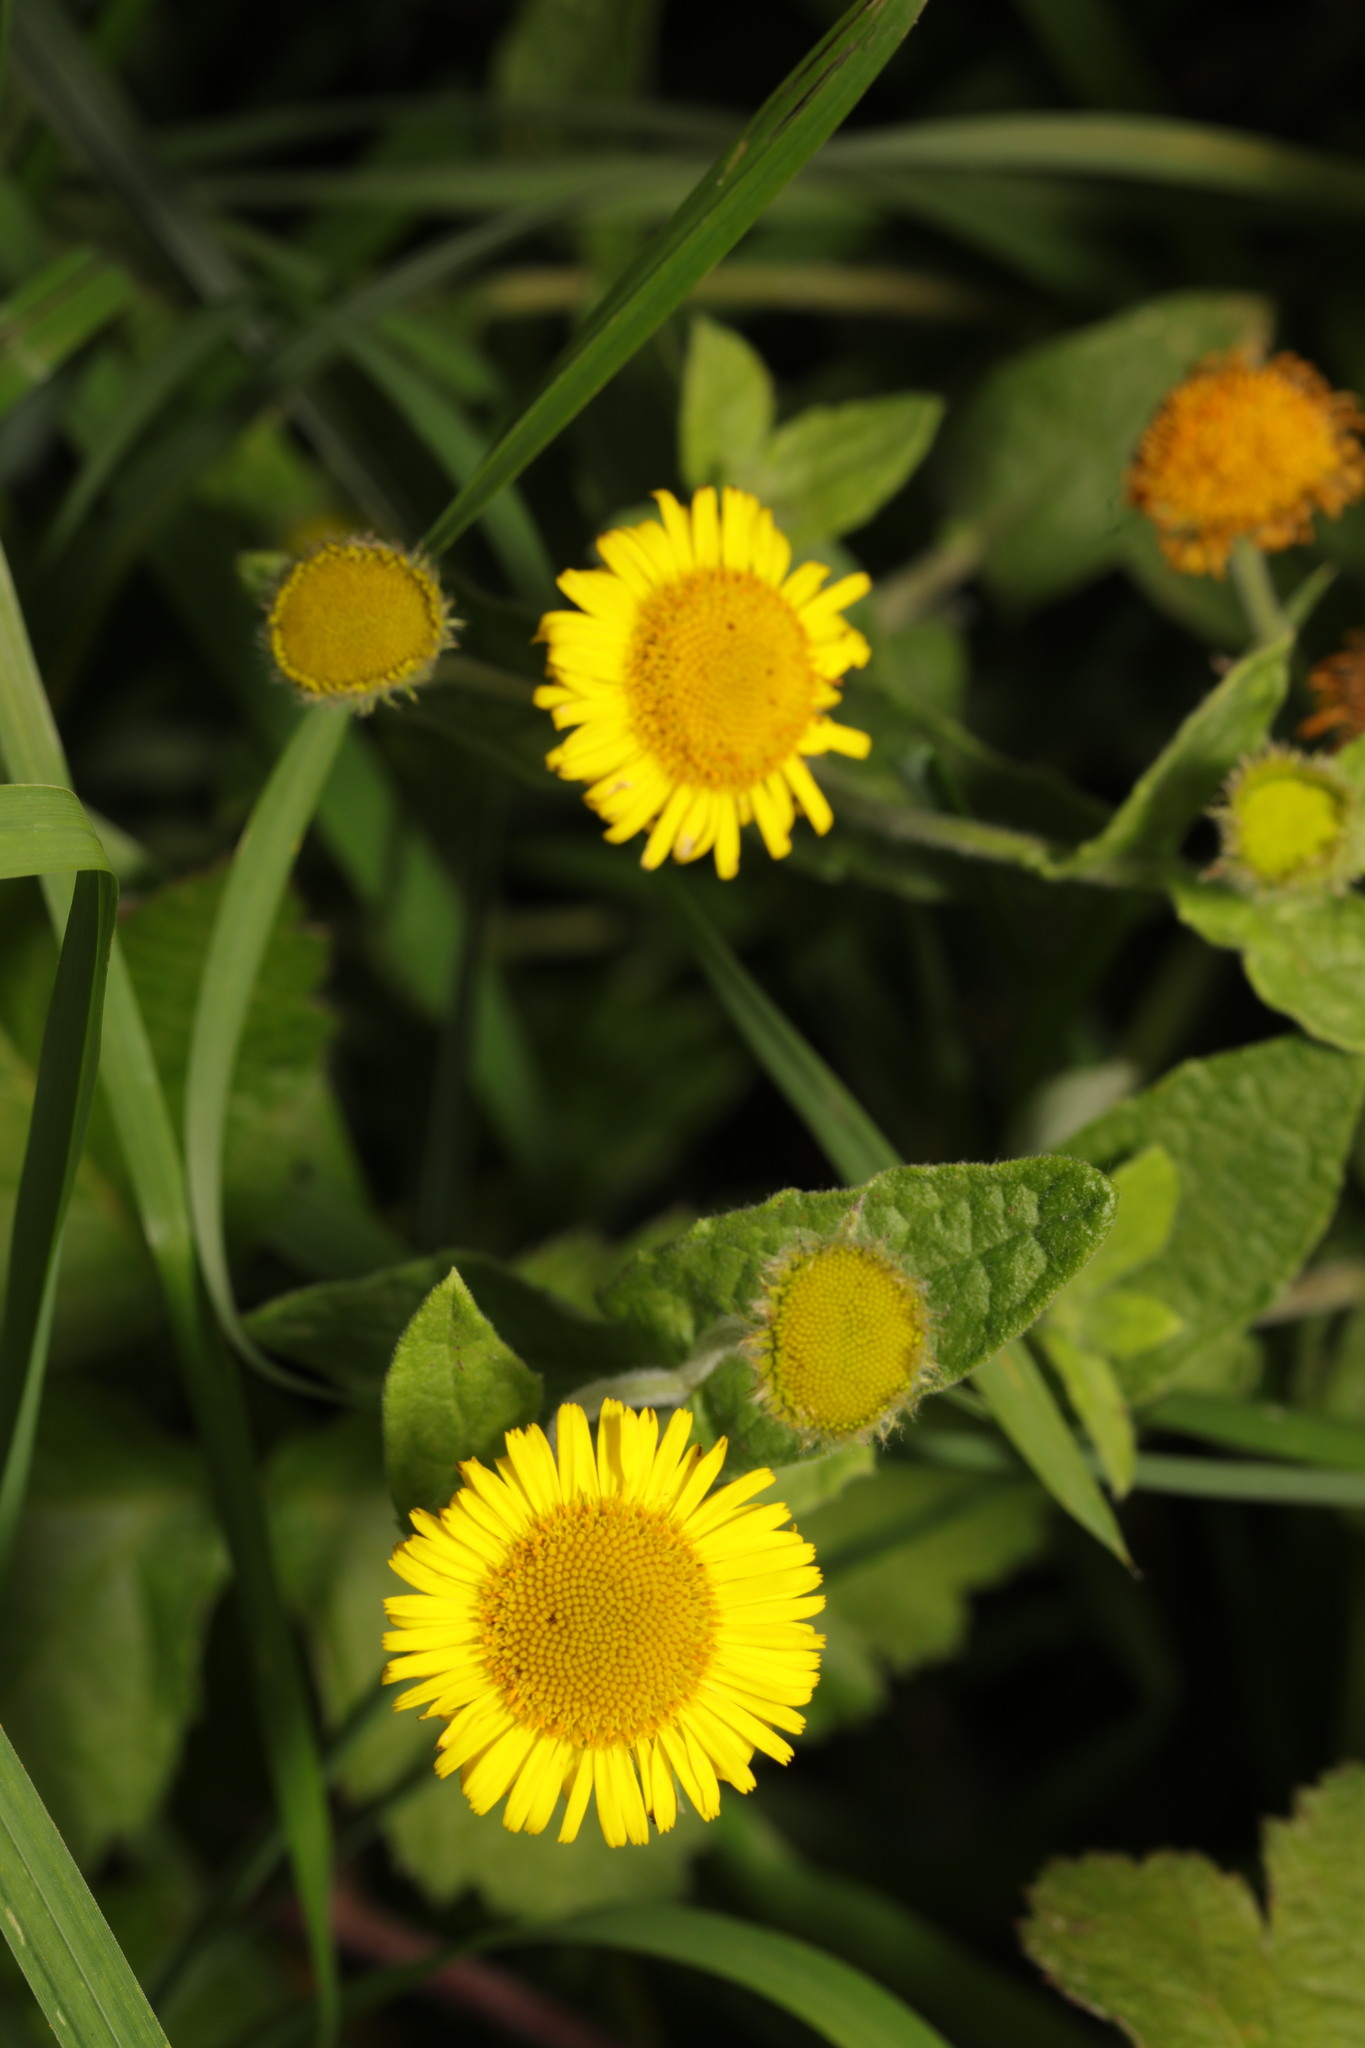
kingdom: Plantae
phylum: Tracheophyta
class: Magnoliopsida
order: Asterales
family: Asteraceae
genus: Pulicaria
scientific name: Pulicaria dysenterica
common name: Common fleabane
